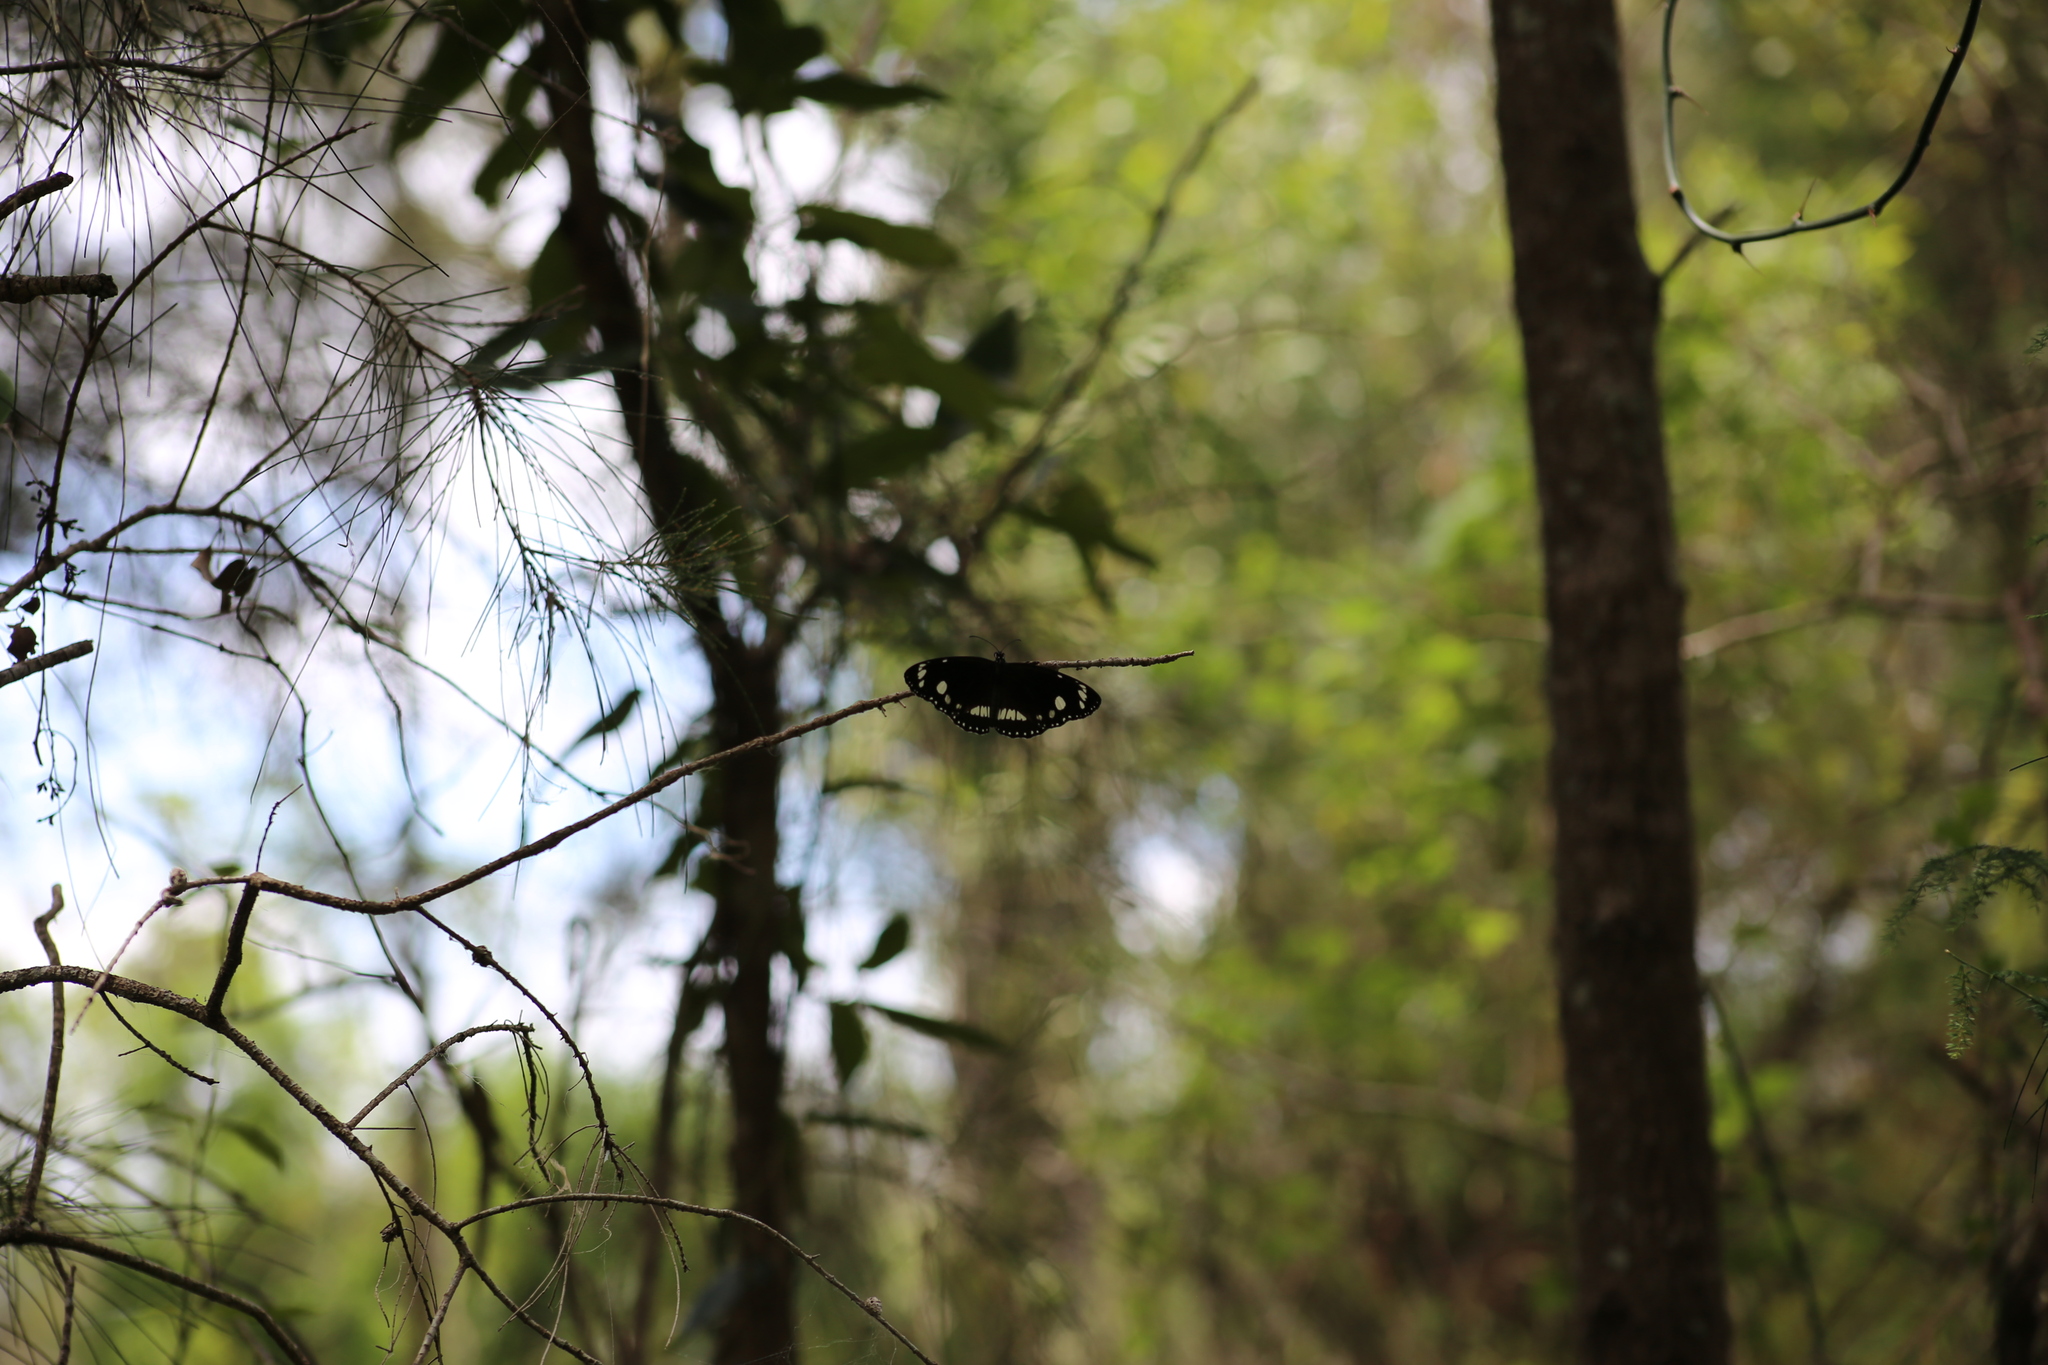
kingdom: Animalia
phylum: Arthropoda
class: Insecta
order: Lepidoptera
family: Nymphalidae
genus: Euploea
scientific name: Euploea core
